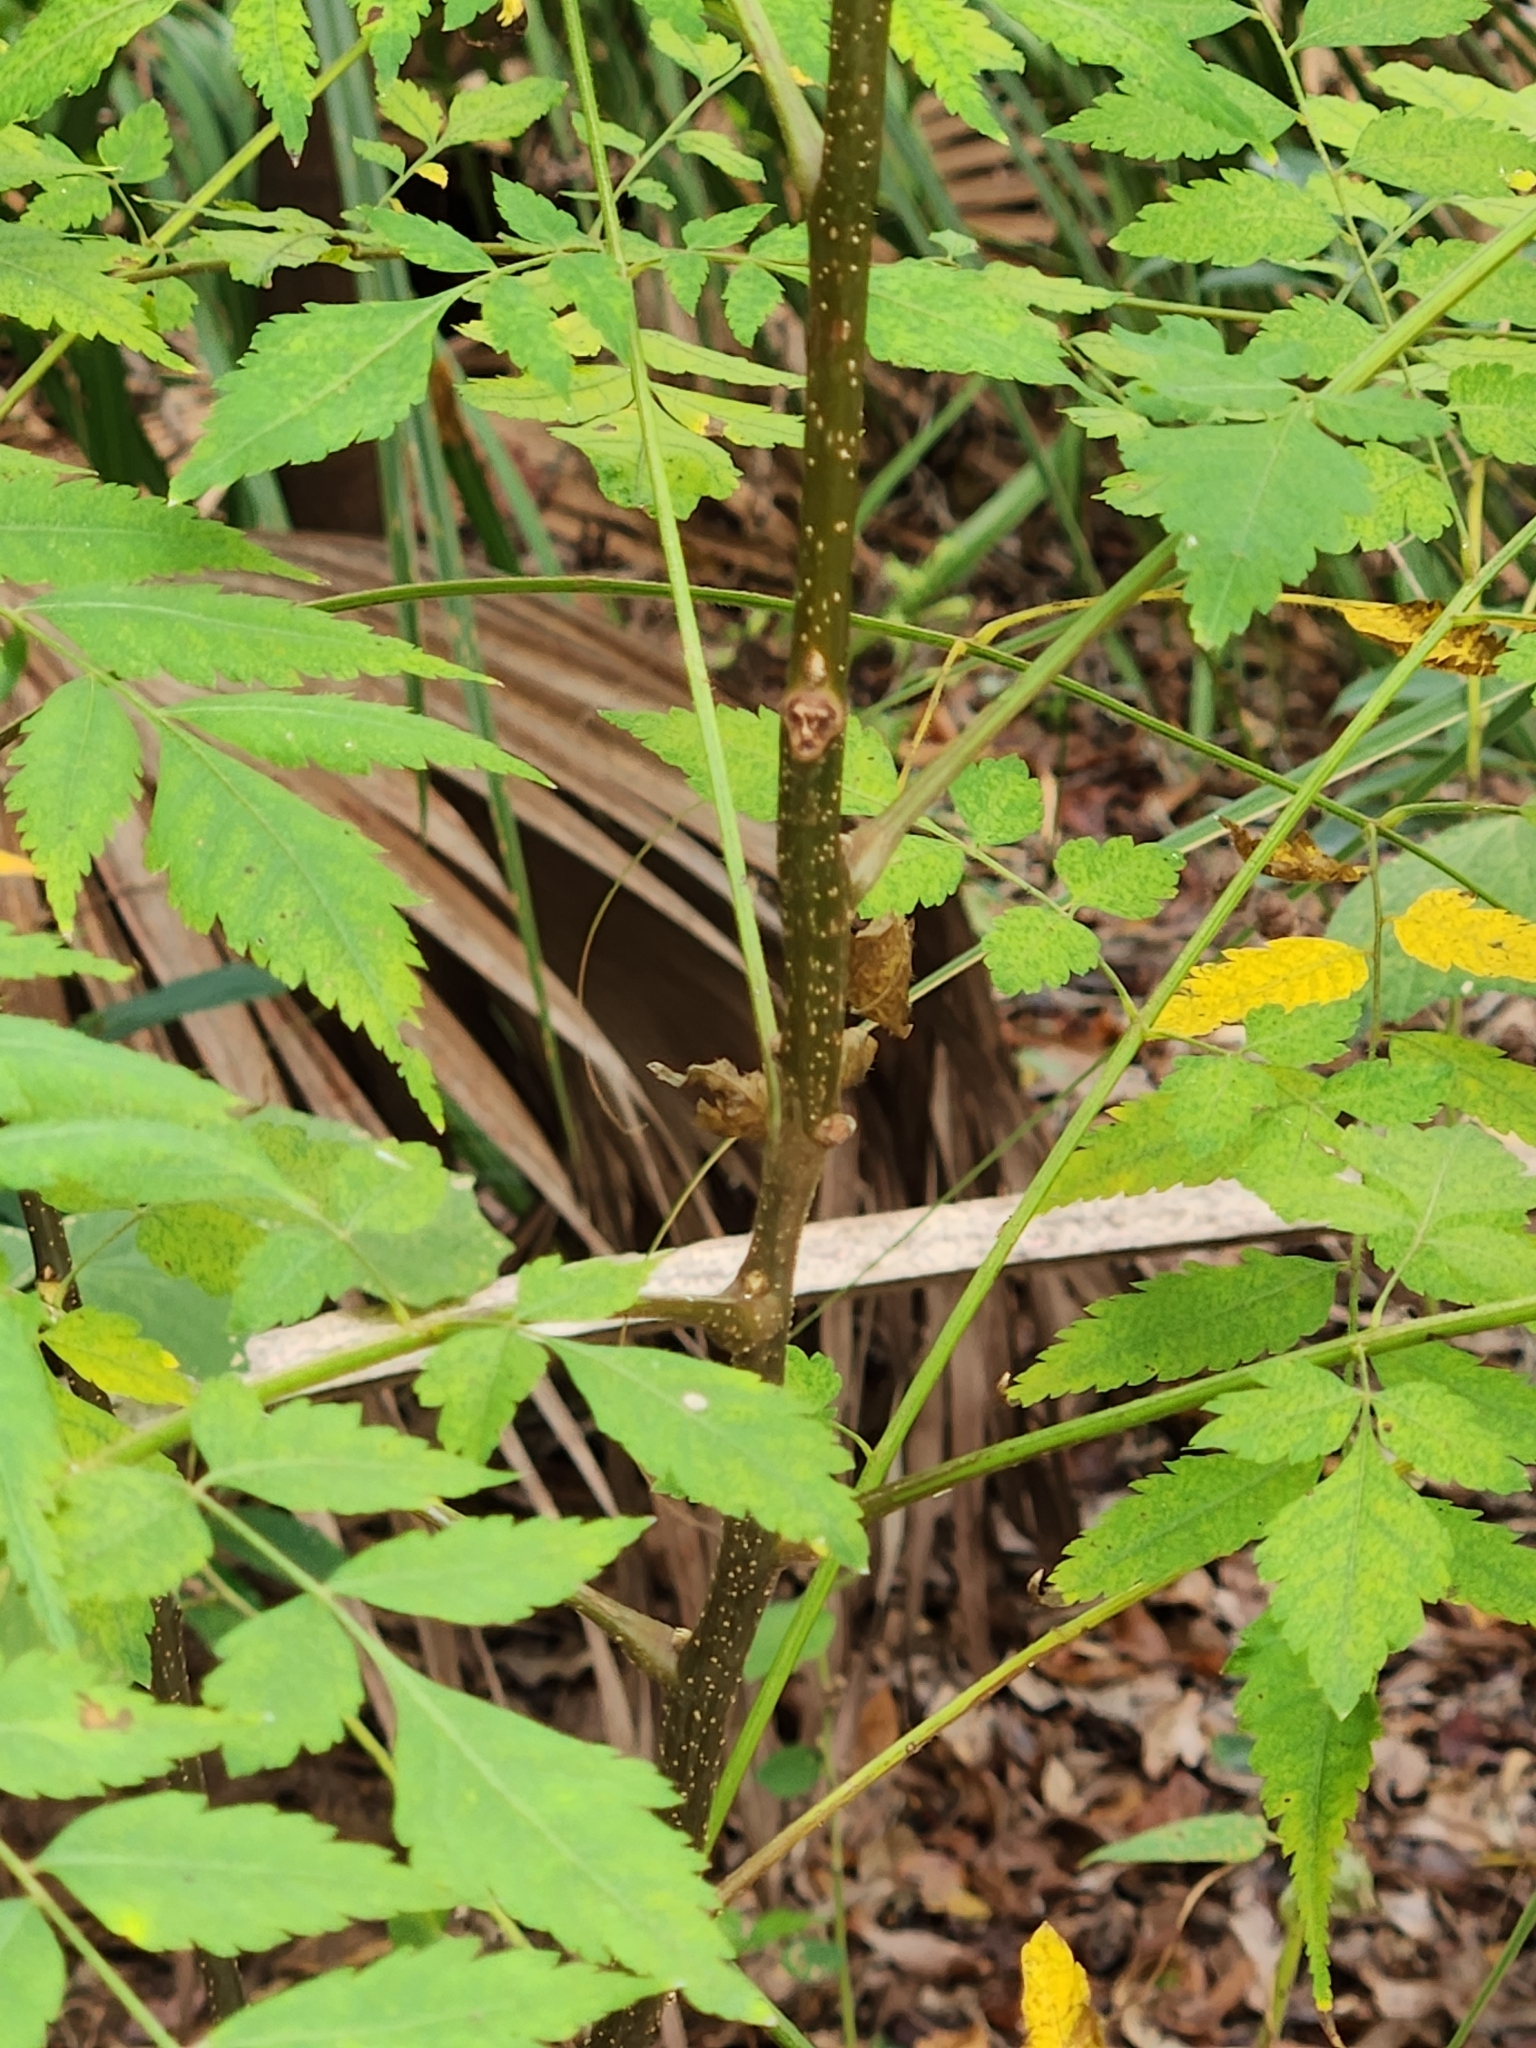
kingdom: Plantae
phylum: Tracheophyta
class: Magnoliopsida
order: Sapindales
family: Sapindaceae
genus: Koelreuteria
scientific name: Koelreuteria elegans
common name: Chinese flame tree
